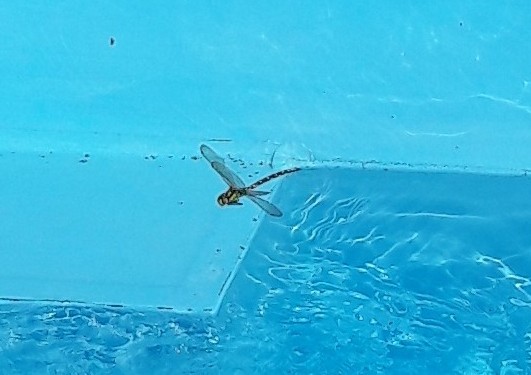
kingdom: Animalia
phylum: Arthropoda
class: Insecta
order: Odonata
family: Aeshnidae
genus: Aeshna
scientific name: Aeshna cyanea
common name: Southern hawker
